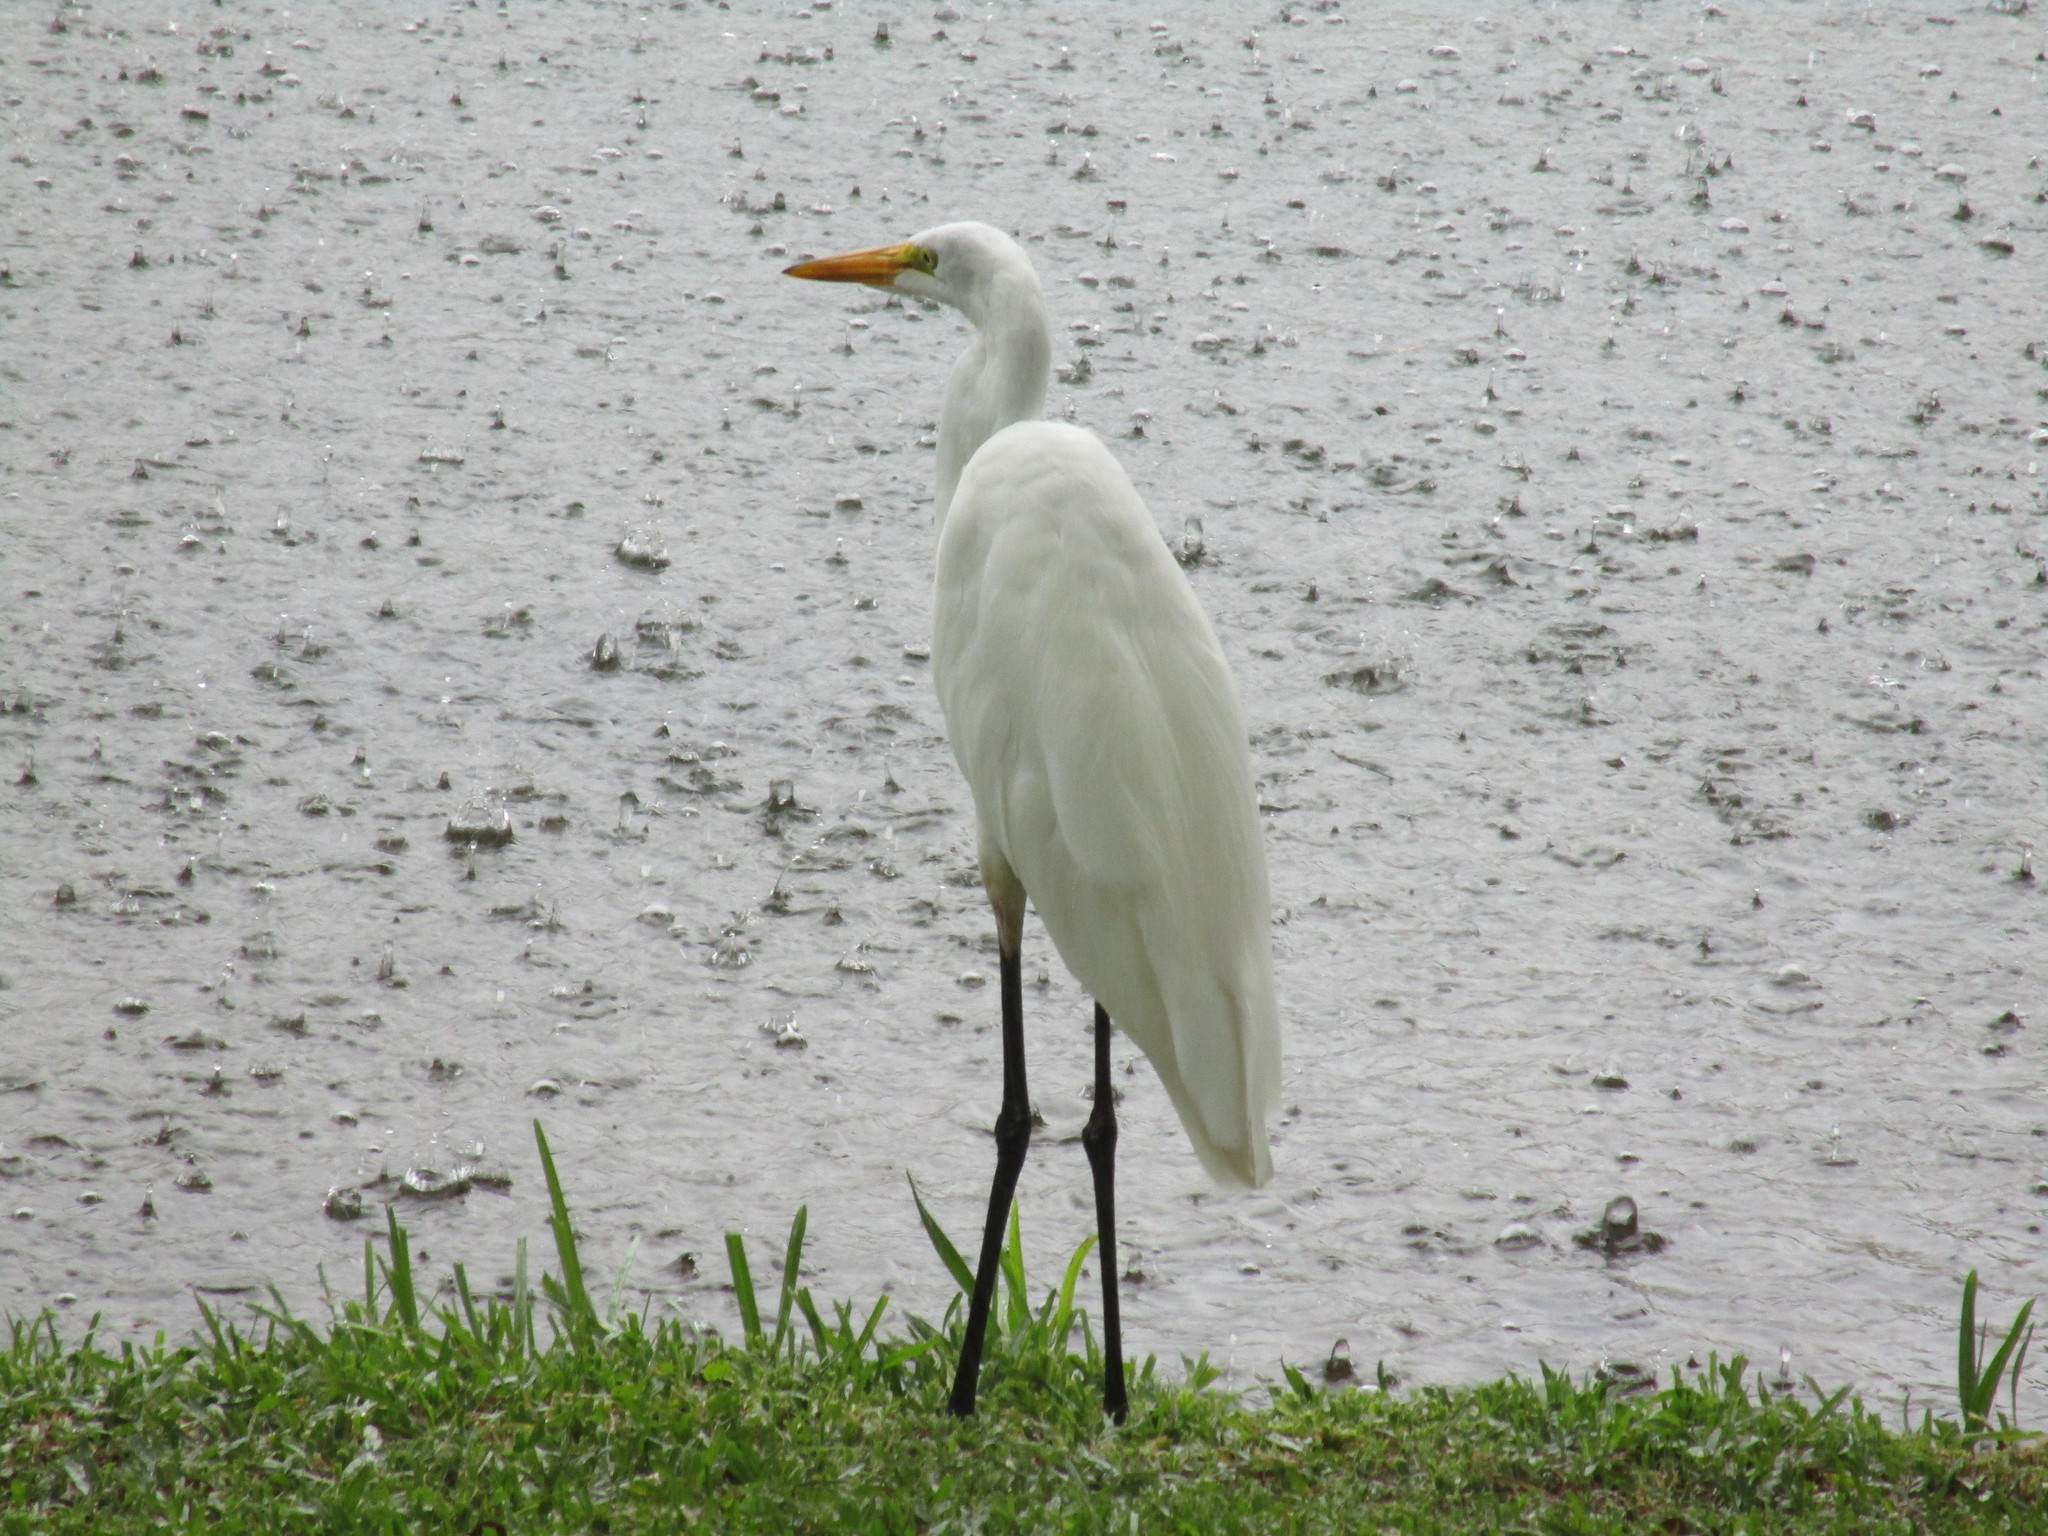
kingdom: Animalia
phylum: Chordata
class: Aves
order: Pelecaniformes
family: Ardeidae
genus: Ardea
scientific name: Ardea alba
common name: Great egret
